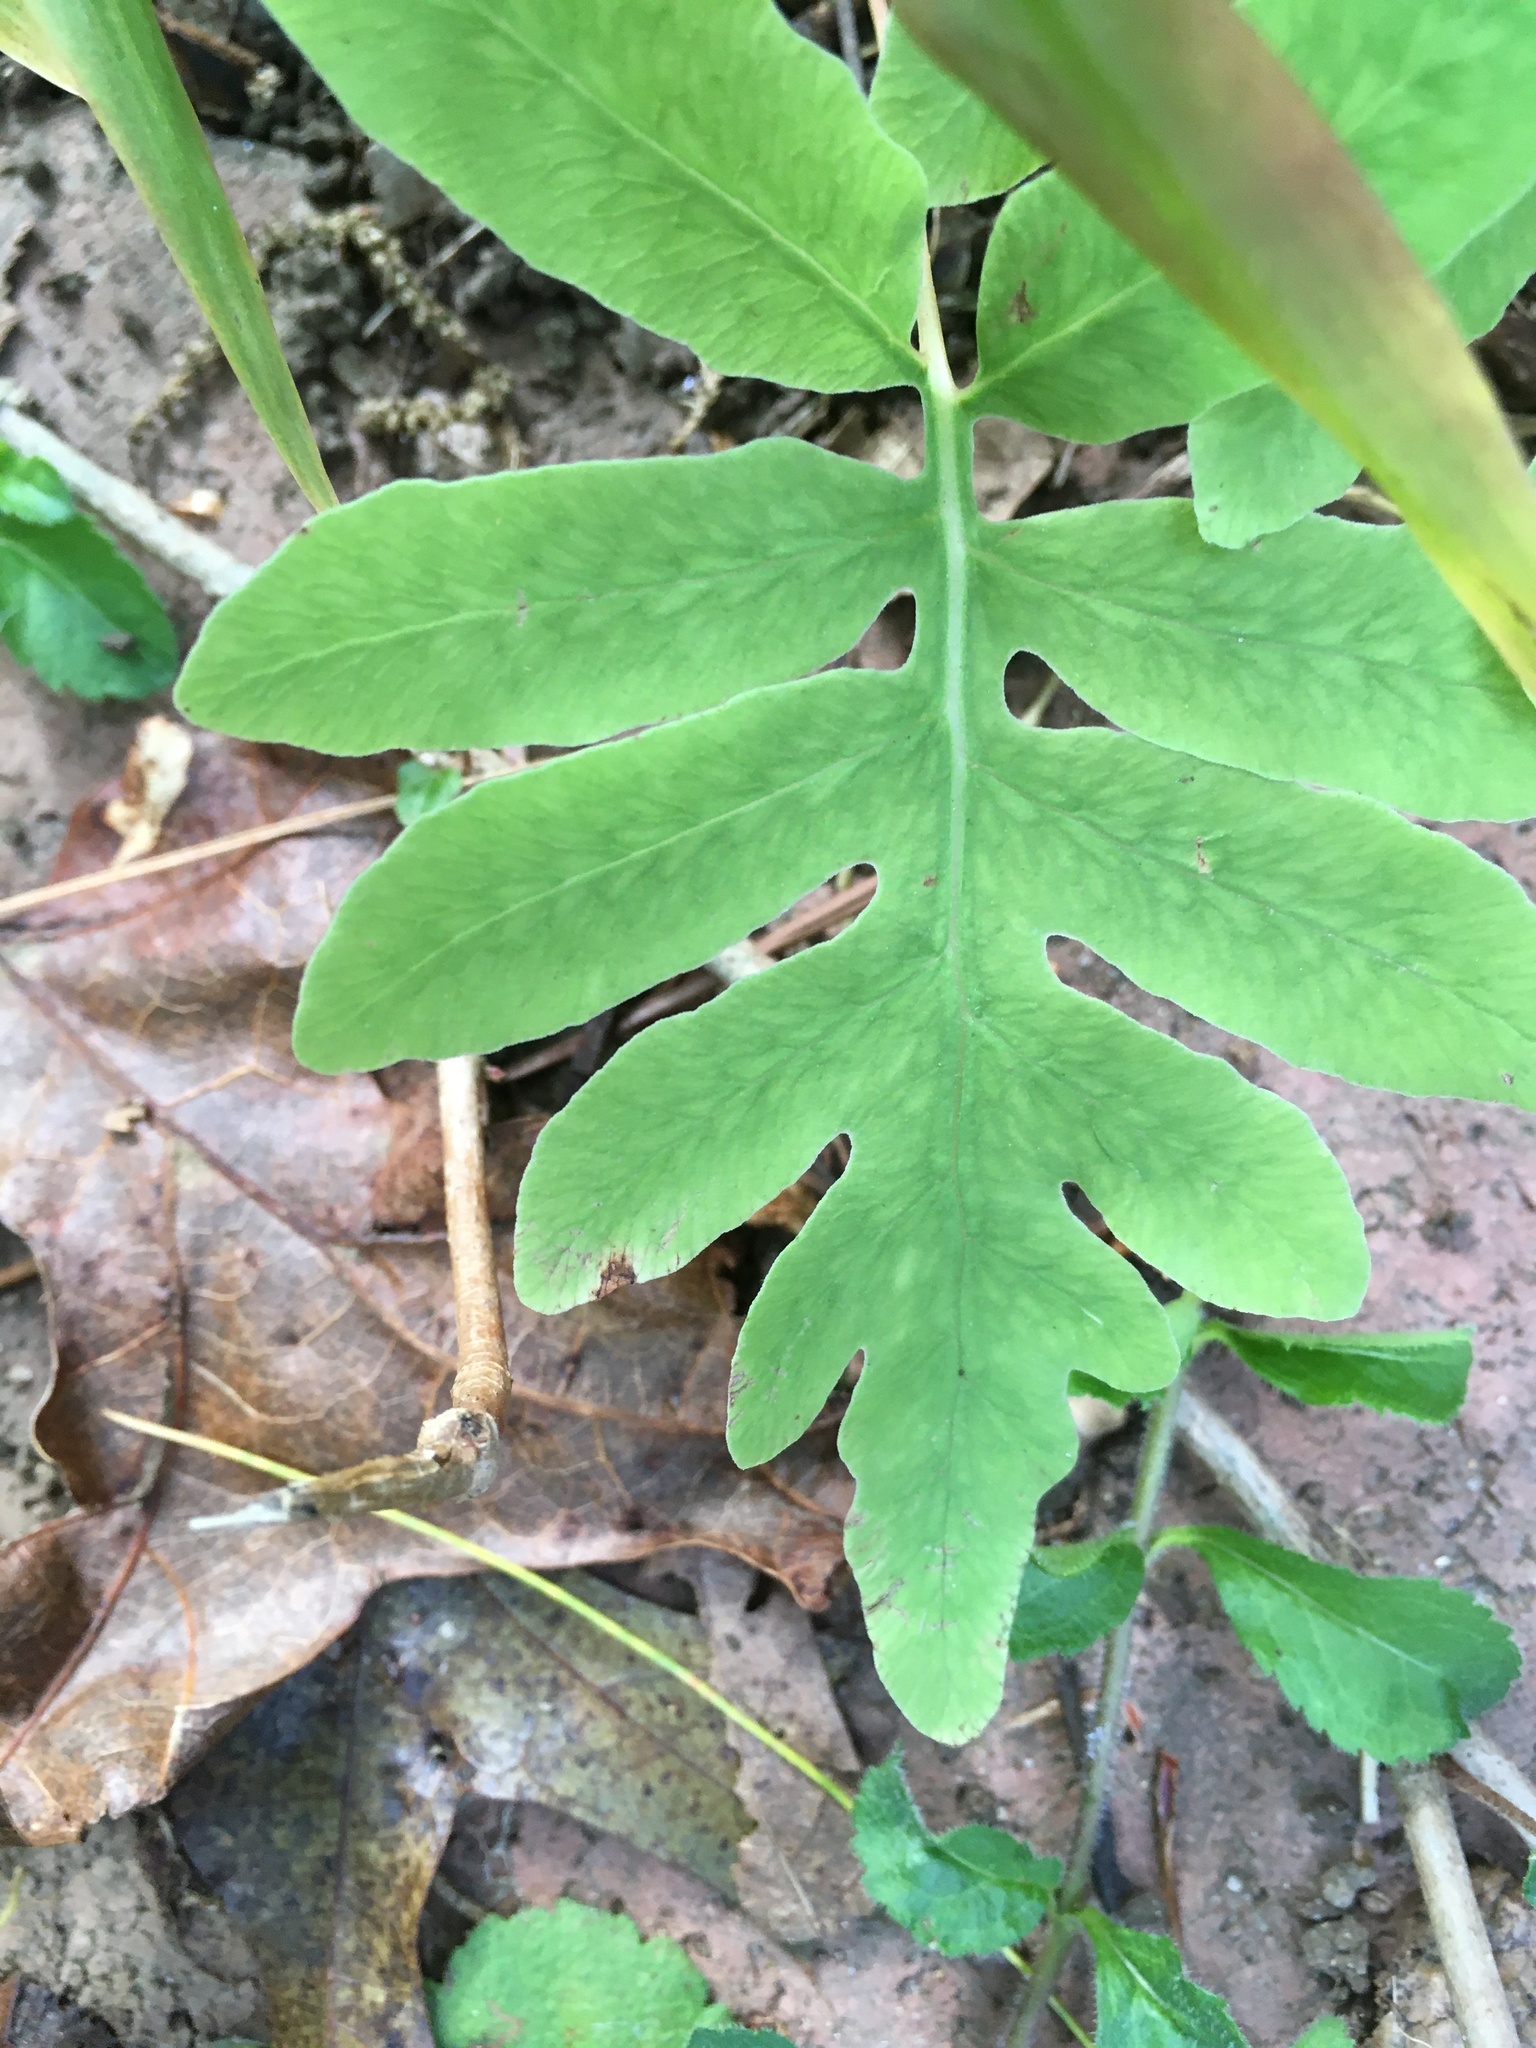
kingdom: Plantae
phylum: Tracheophyta
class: Polypodiopsida
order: Polypodiales
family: Onocleaceae
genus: Onoclea
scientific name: Onoclea sensibilis
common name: Sensitive fern
